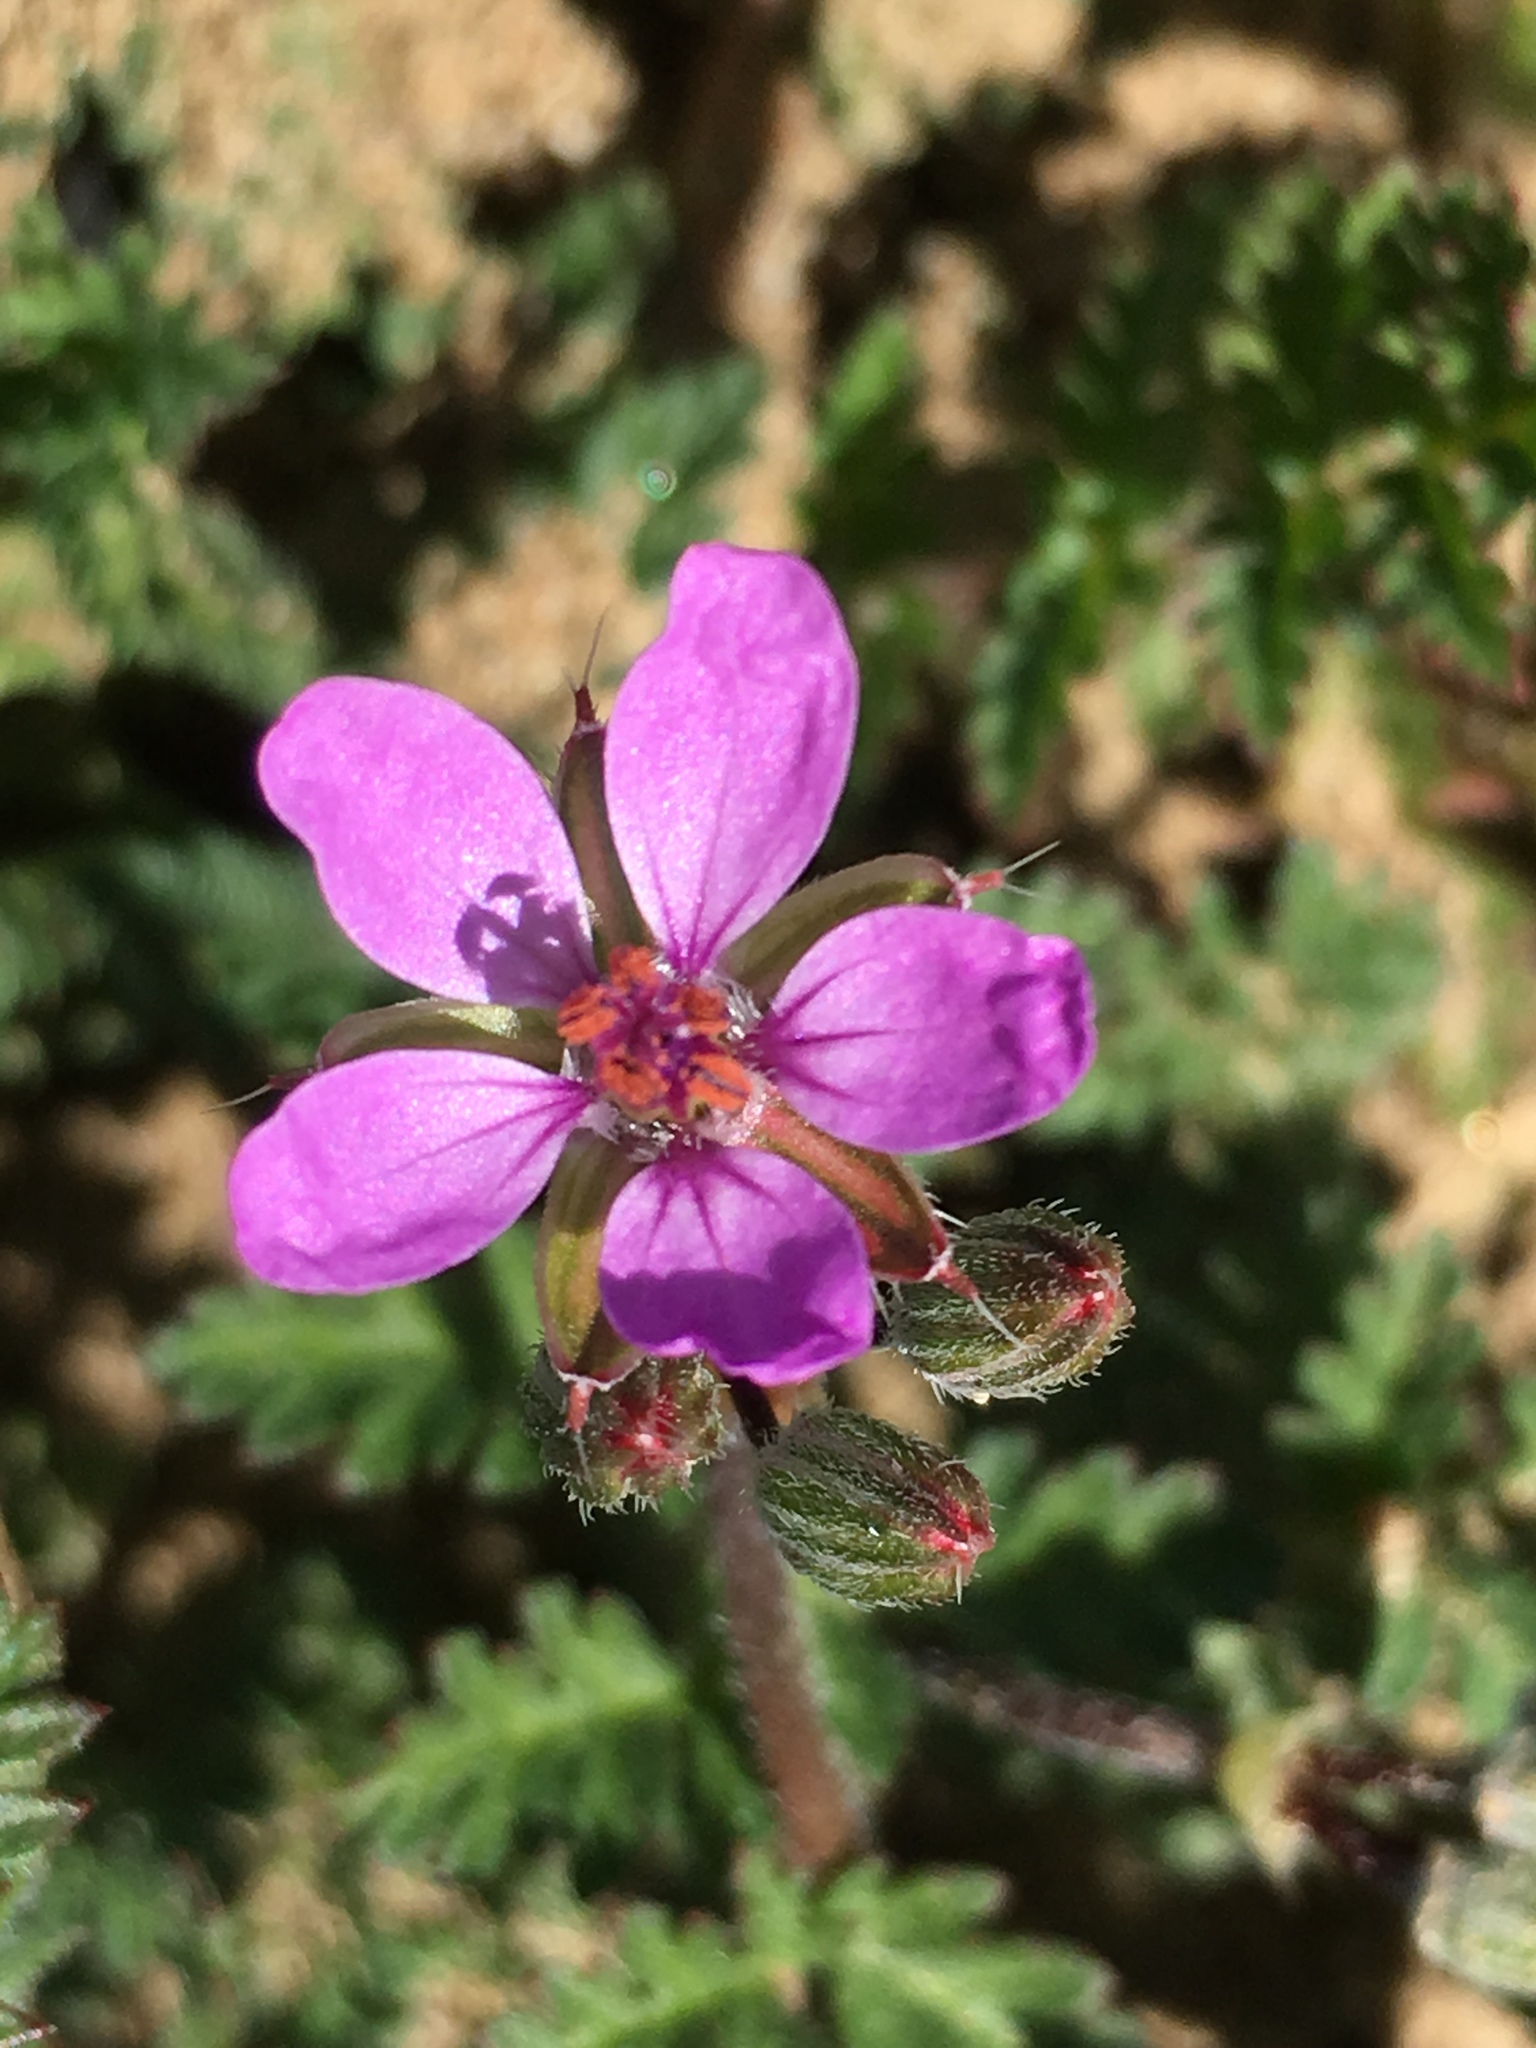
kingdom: Plantae
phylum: Tracheophyta
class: Magnoliopsida
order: Geraniales
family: Geraniaceae
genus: Erodium
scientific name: Erodium cicutarium
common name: Common stork's-bill
